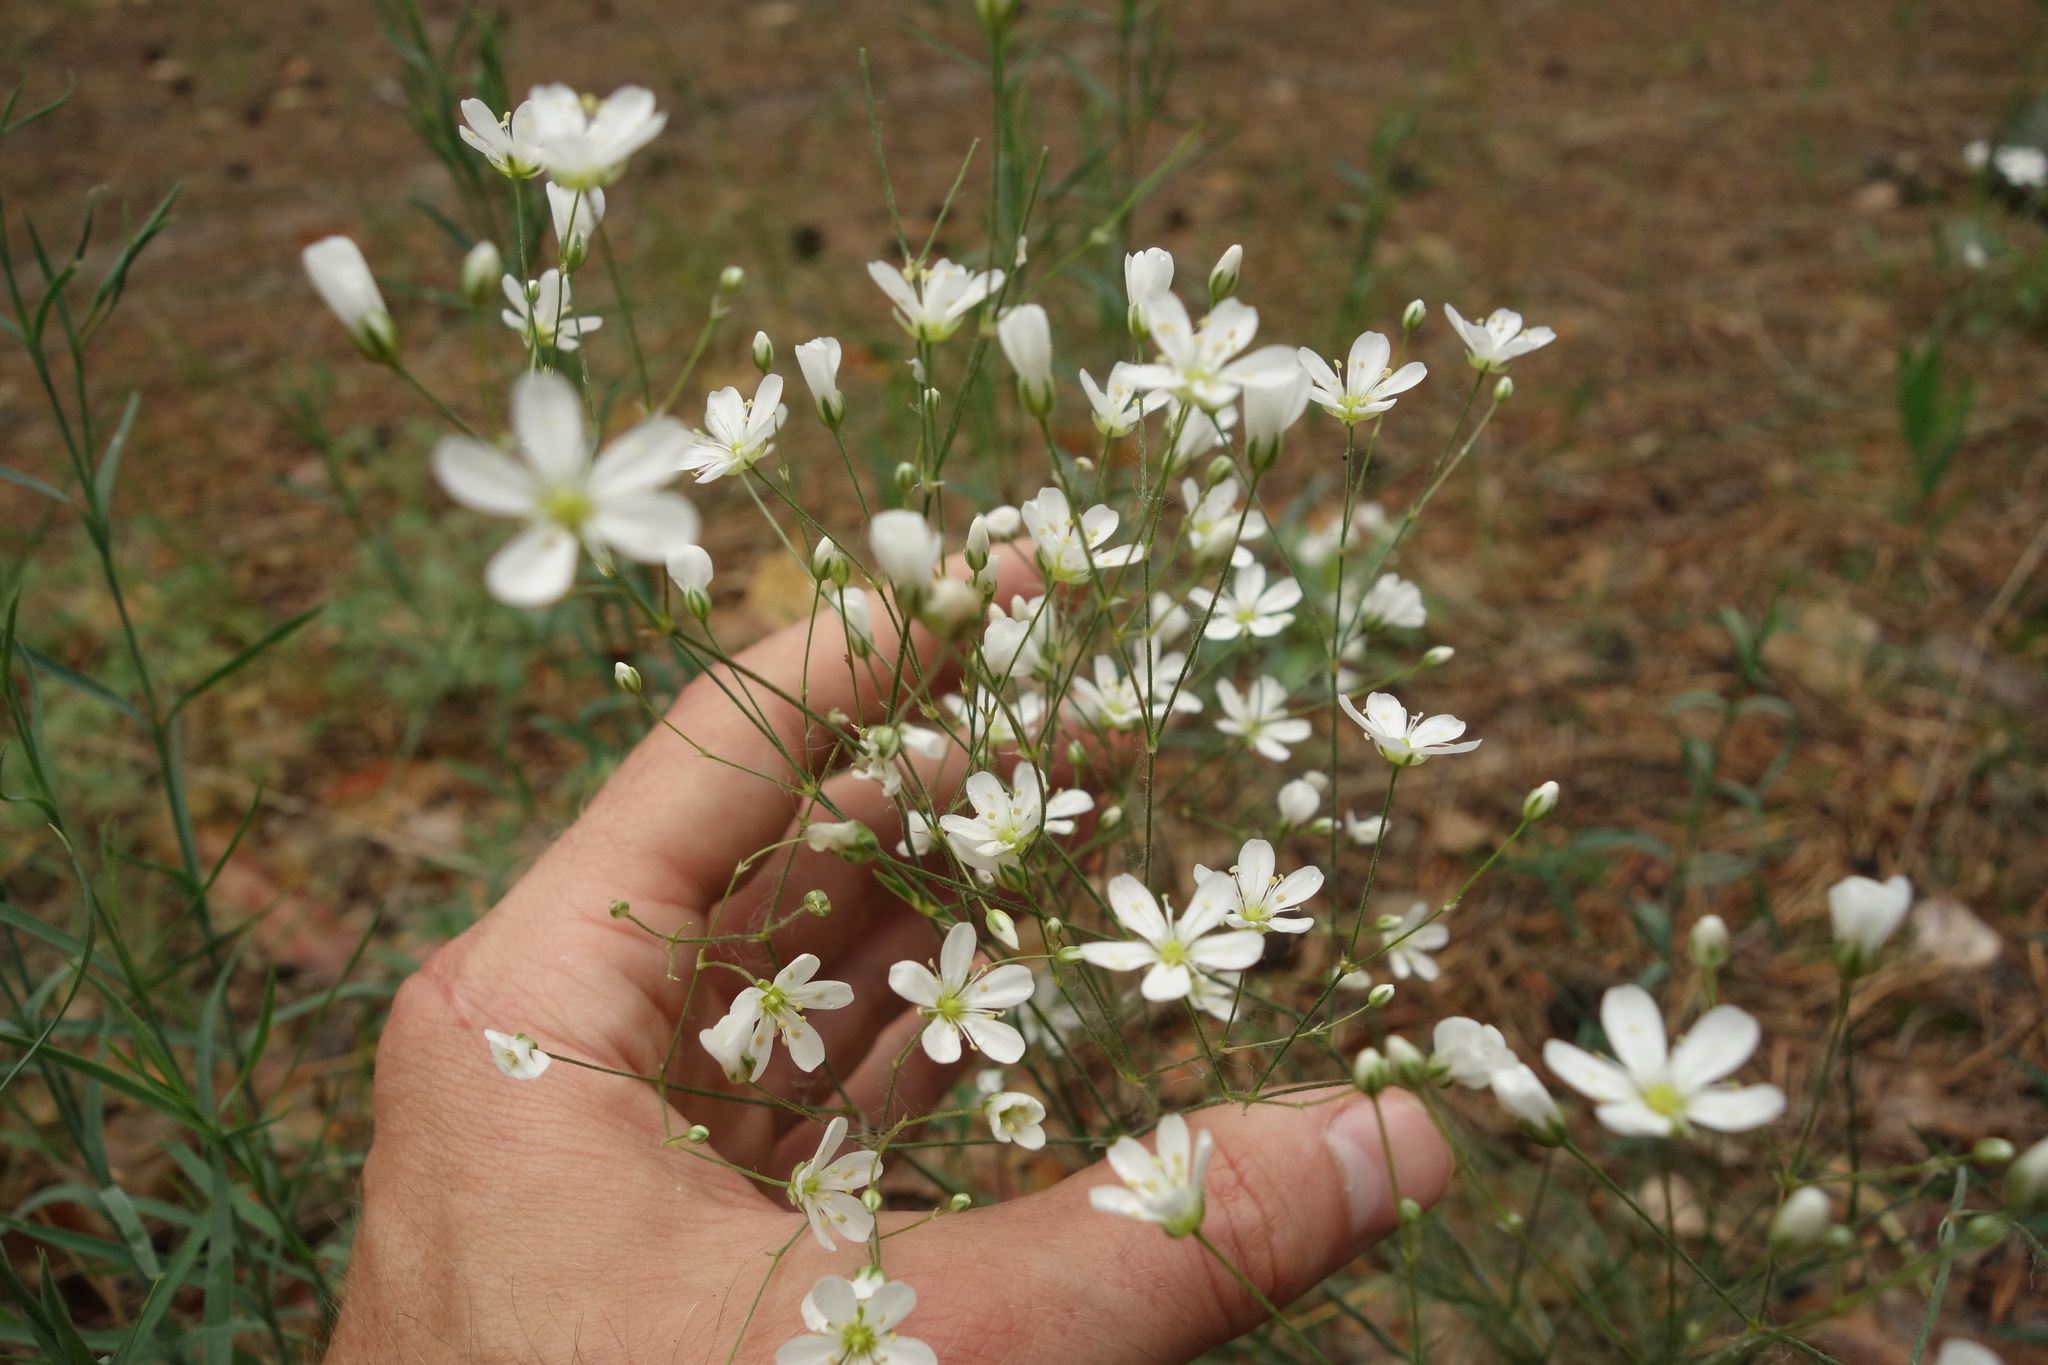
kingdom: Plantae
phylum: Tracheophyta
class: Magnoliopsida
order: Caryophyllales
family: Caryophyllaceae
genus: Eremogone
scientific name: Eremogone biebersteinii
